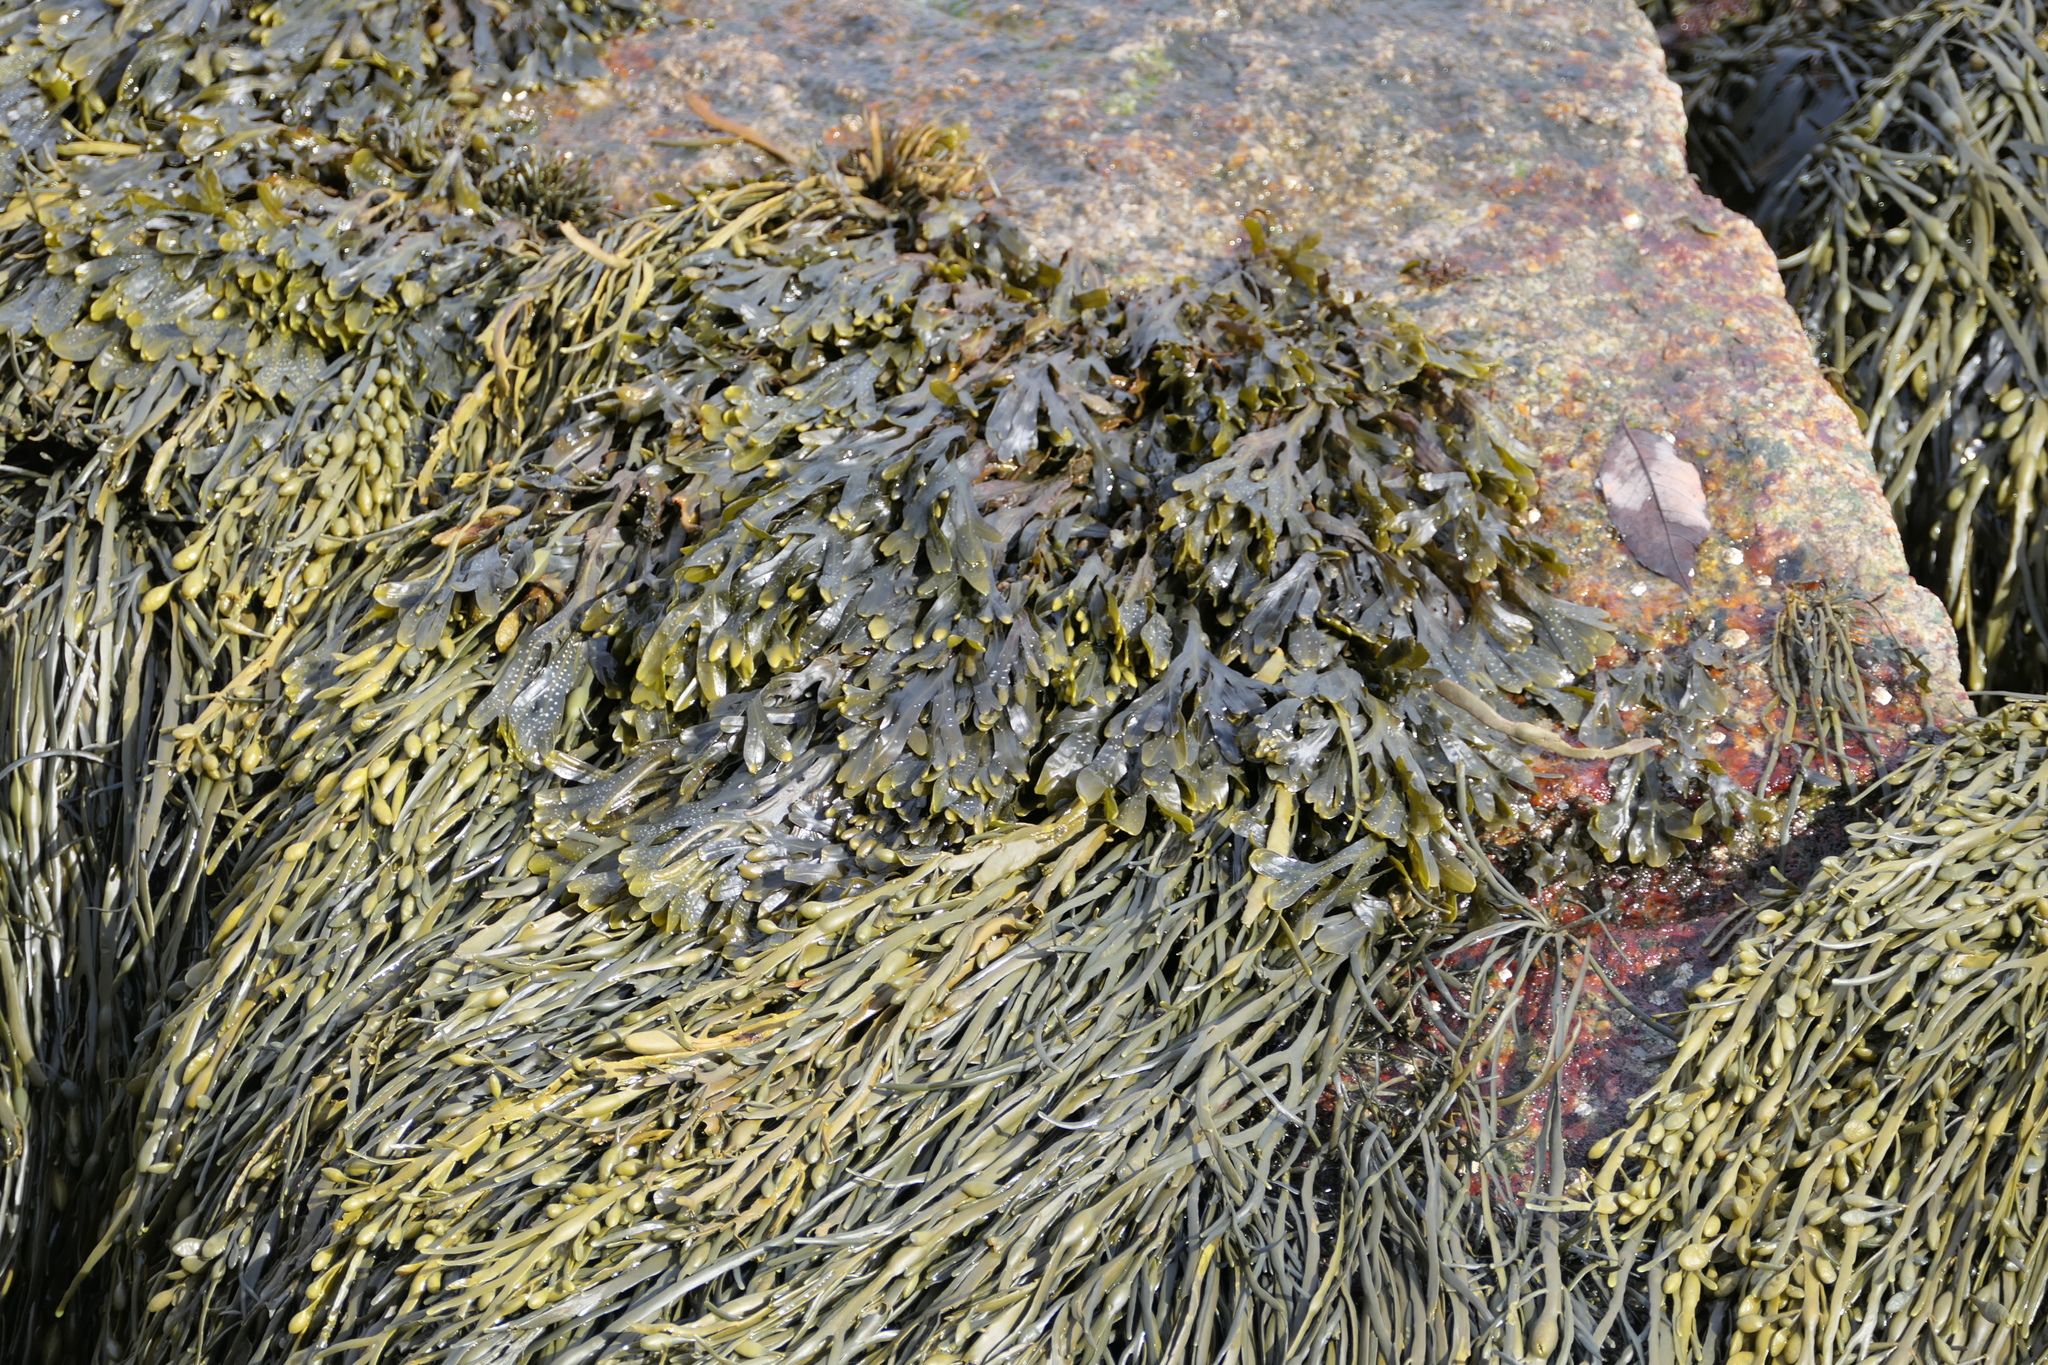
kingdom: Chromista
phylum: Ochrophyta
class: Phaeophyceae
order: Fucales
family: Fucaceae
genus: Ascophyllum
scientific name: Ascophyllum nodosum
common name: Knotted wrack
